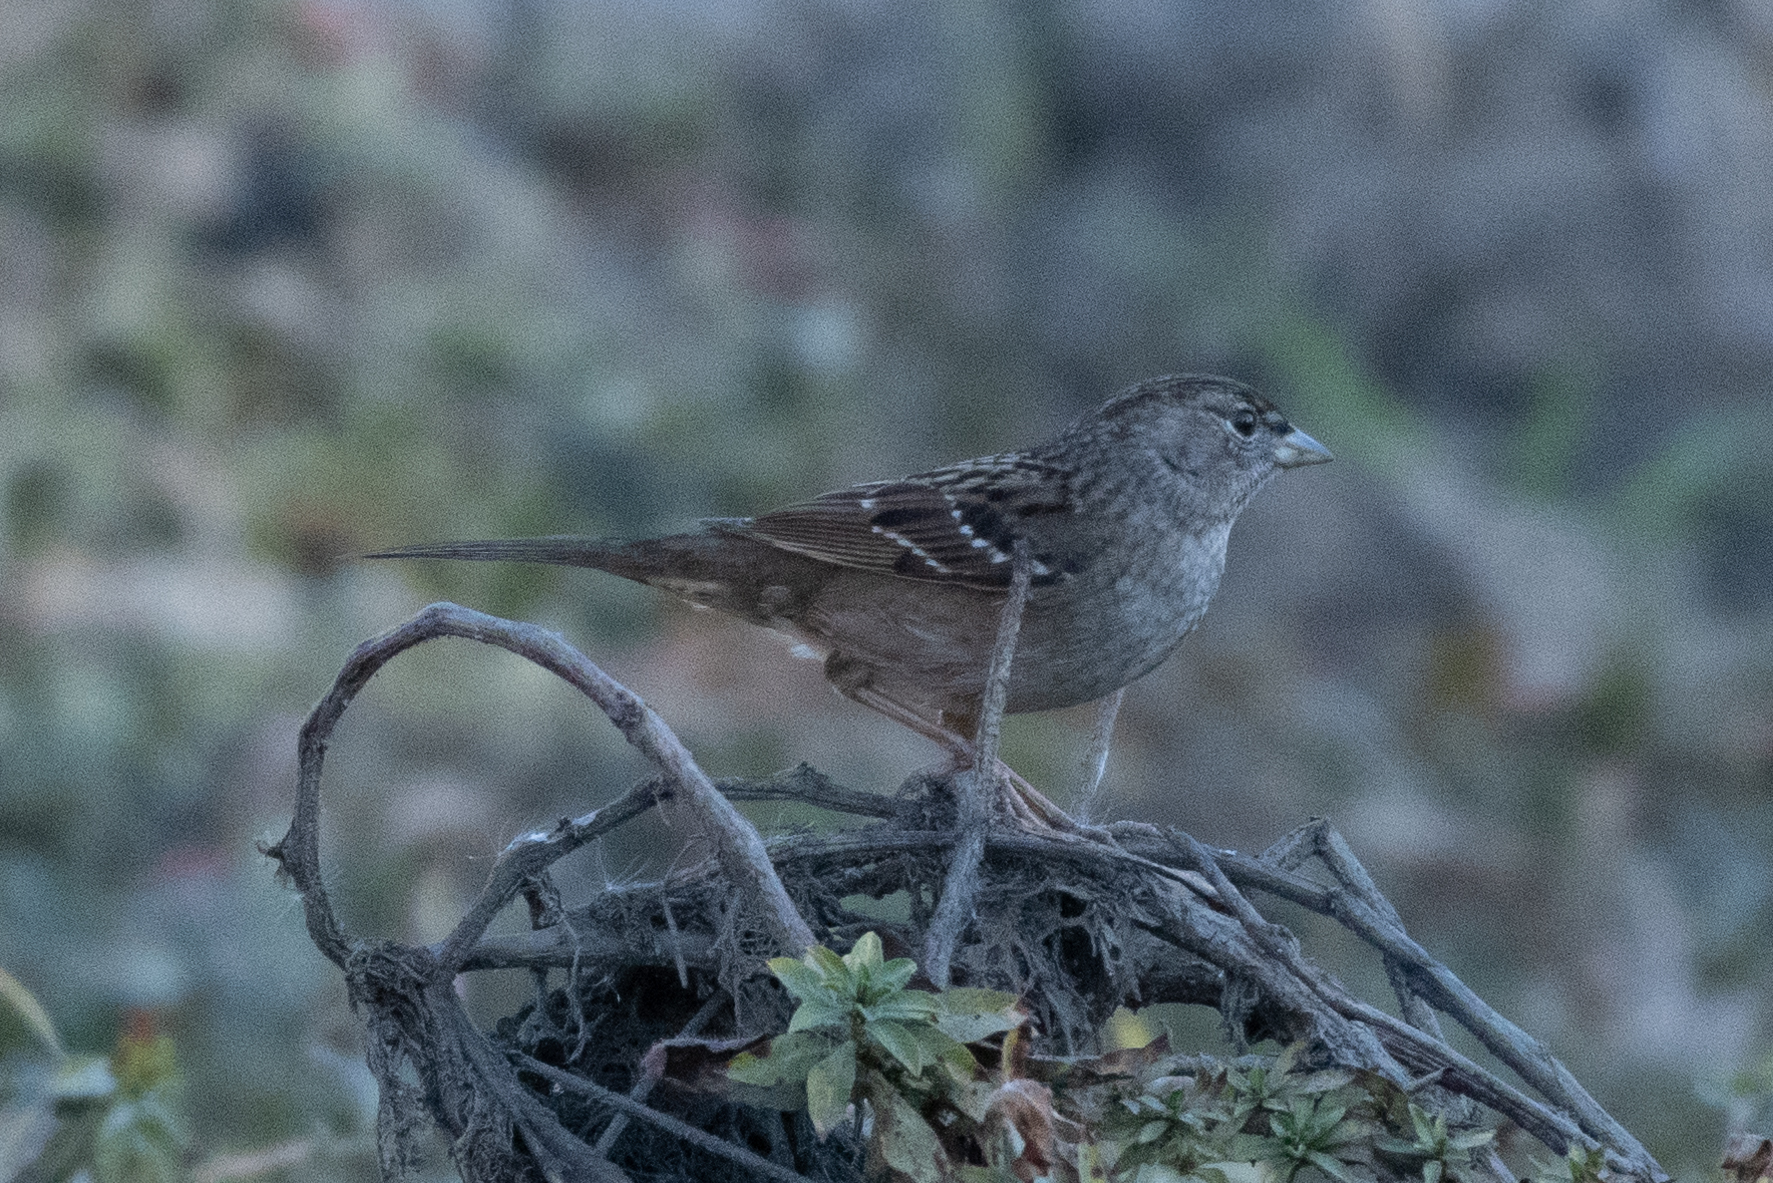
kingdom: Animalia
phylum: Chordata
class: Aves
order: Passeriformes
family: Passerellidae
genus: Zonotrichia
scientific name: Zonotrichia atricapilla
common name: Golden-crowned sparrow
